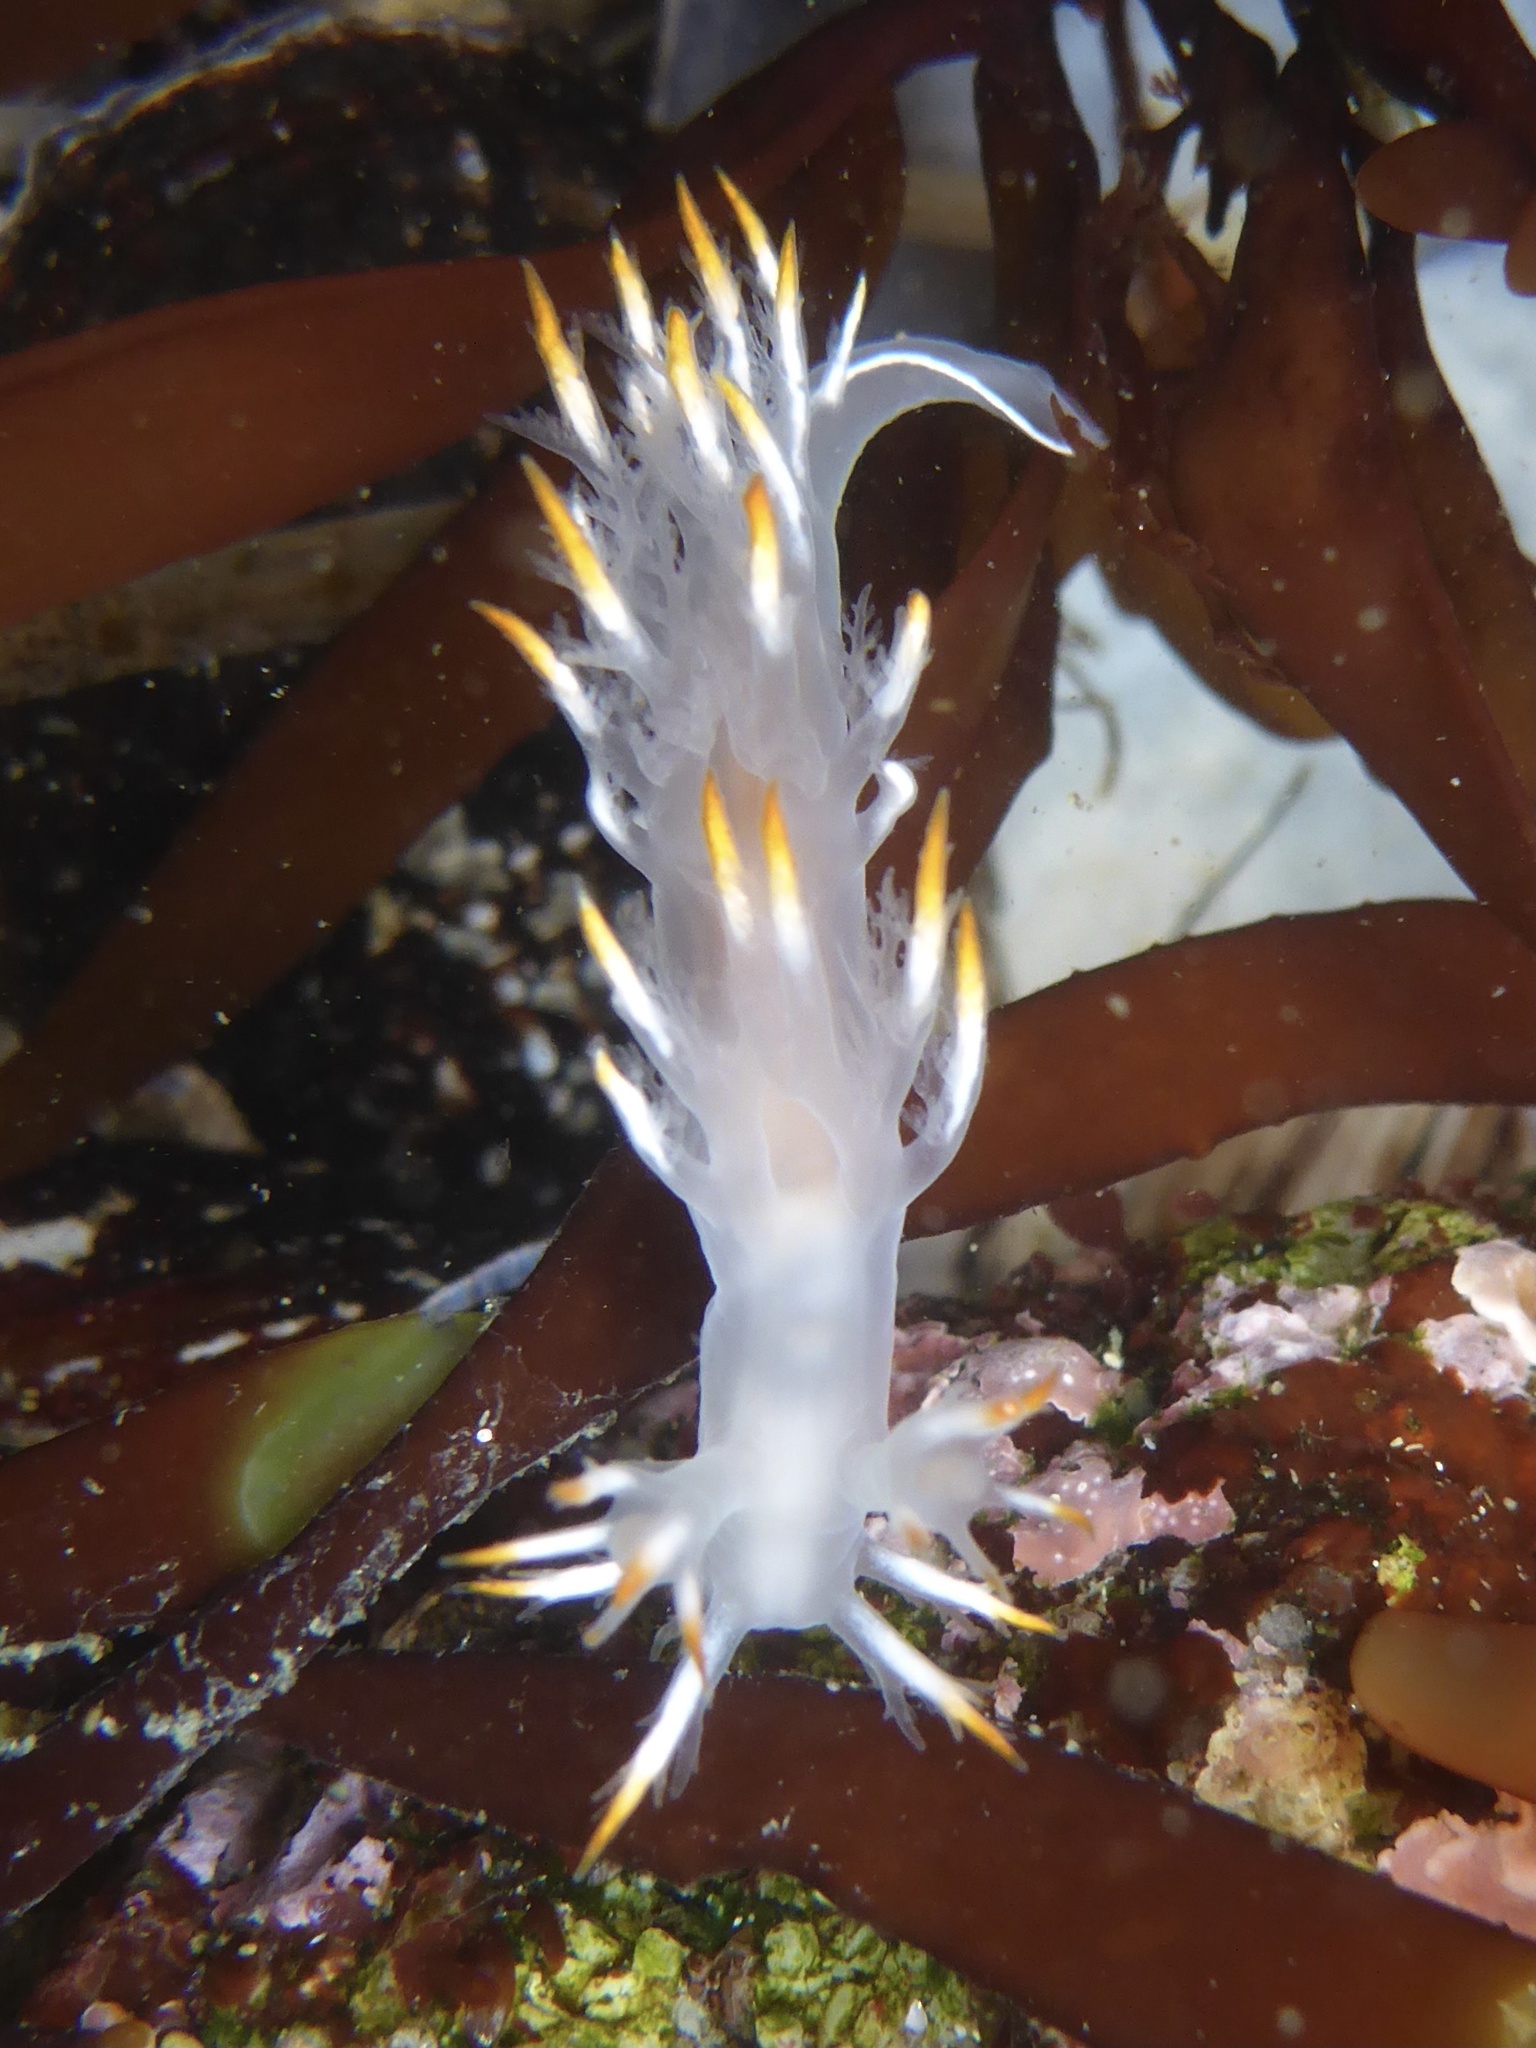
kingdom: Animalia
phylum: Mollusca
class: Gastropoda
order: Nudibranchia
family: Dendronotidae
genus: Dendronotus
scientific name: Dendronotus albus
